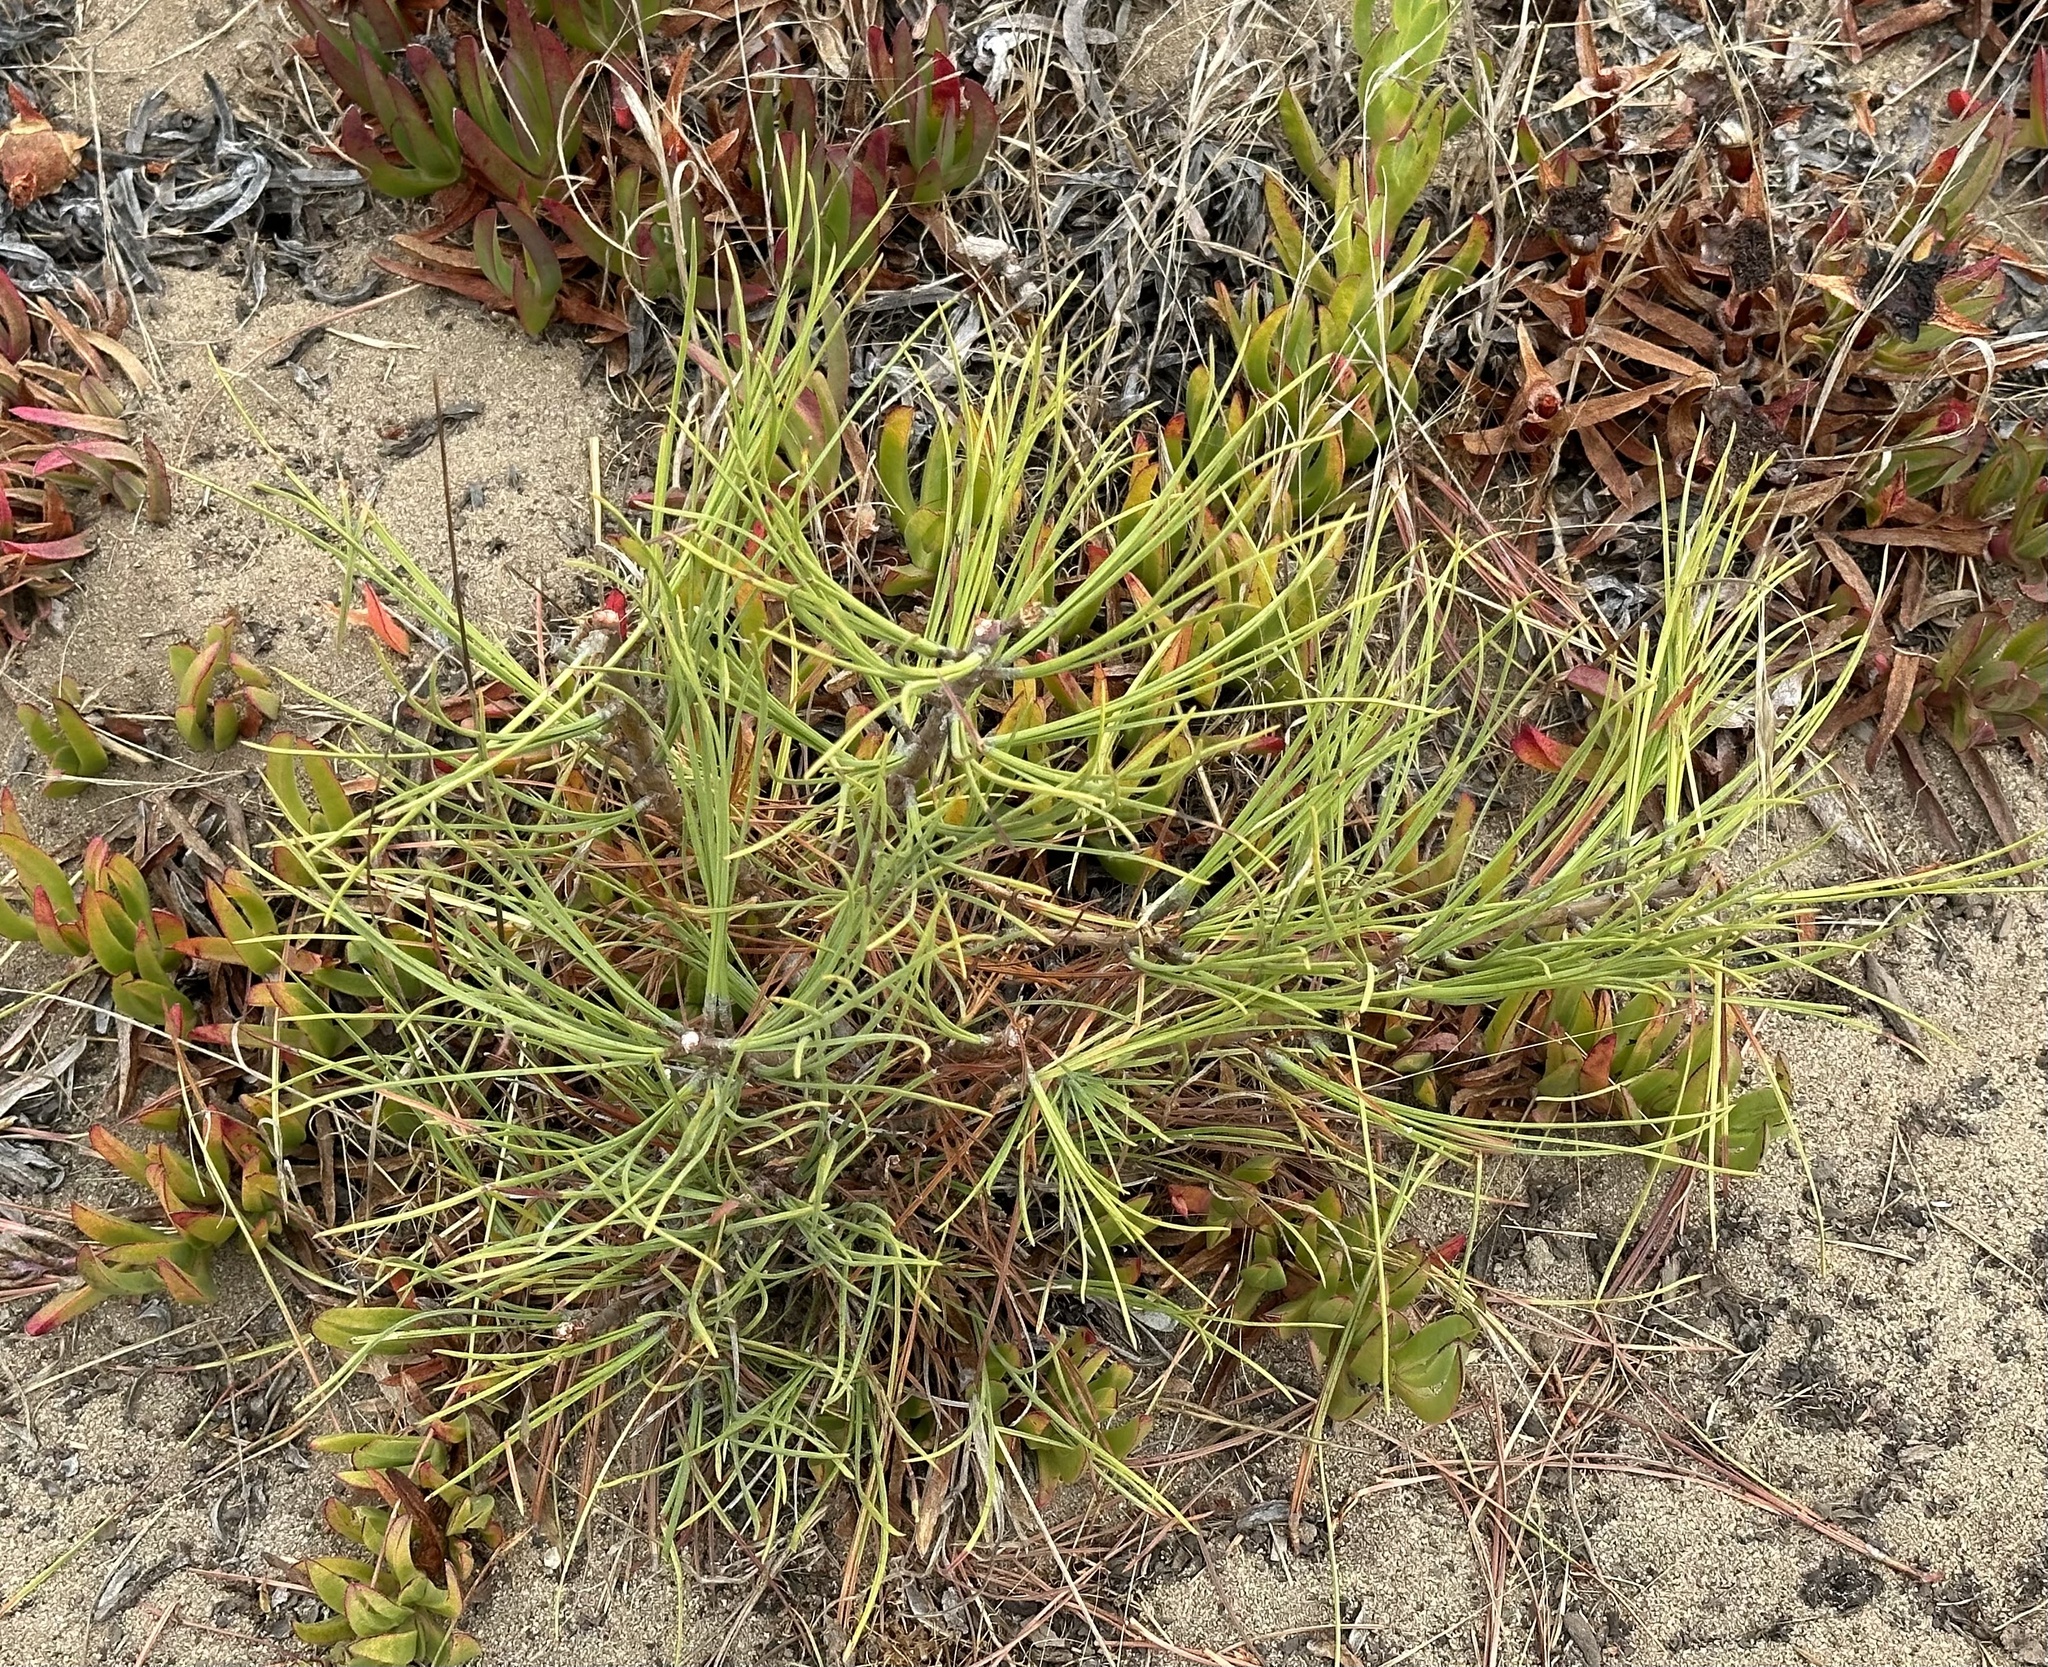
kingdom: Plantae
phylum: Tracheophyta
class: Pinopsida
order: Pinales
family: Pinaceae
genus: Pinus
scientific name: Pinus torreyana
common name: Torrey pine
